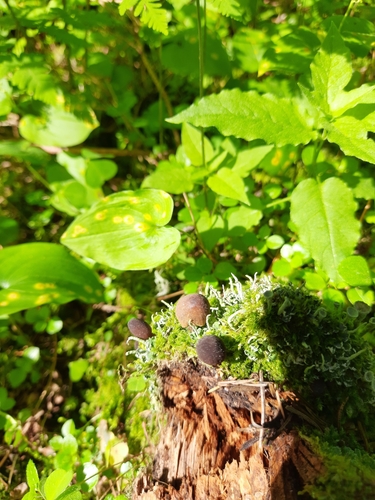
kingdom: Fungi
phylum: Basidiomycota
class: Agaricomycetes
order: Agaricales
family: Mycenaceae
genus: Mycena
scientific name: Mycena viridimarginata
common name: Olive edge bonnet
